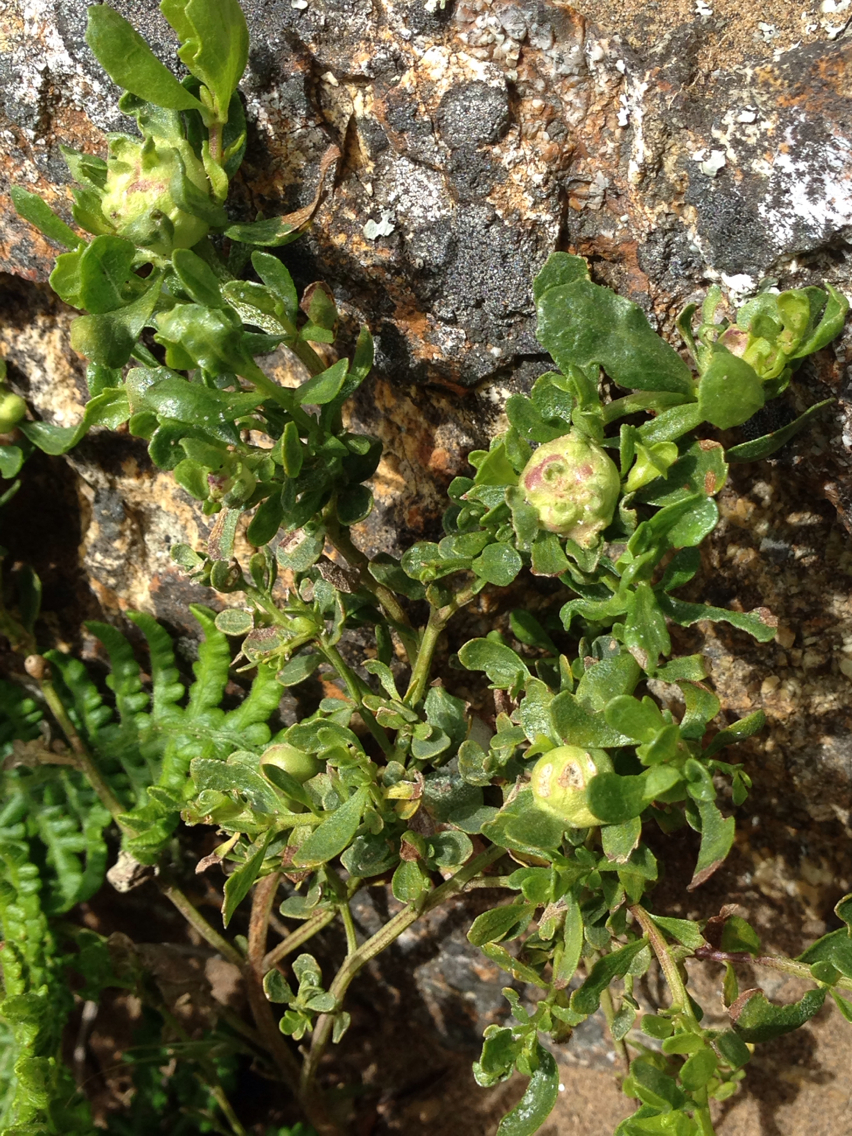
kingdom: Animalia
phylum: Arthropoda
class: Insecta
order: Diptera
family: Cecidomyiidae
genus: Rhopalomyia
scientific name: Rhopalomyia californica
